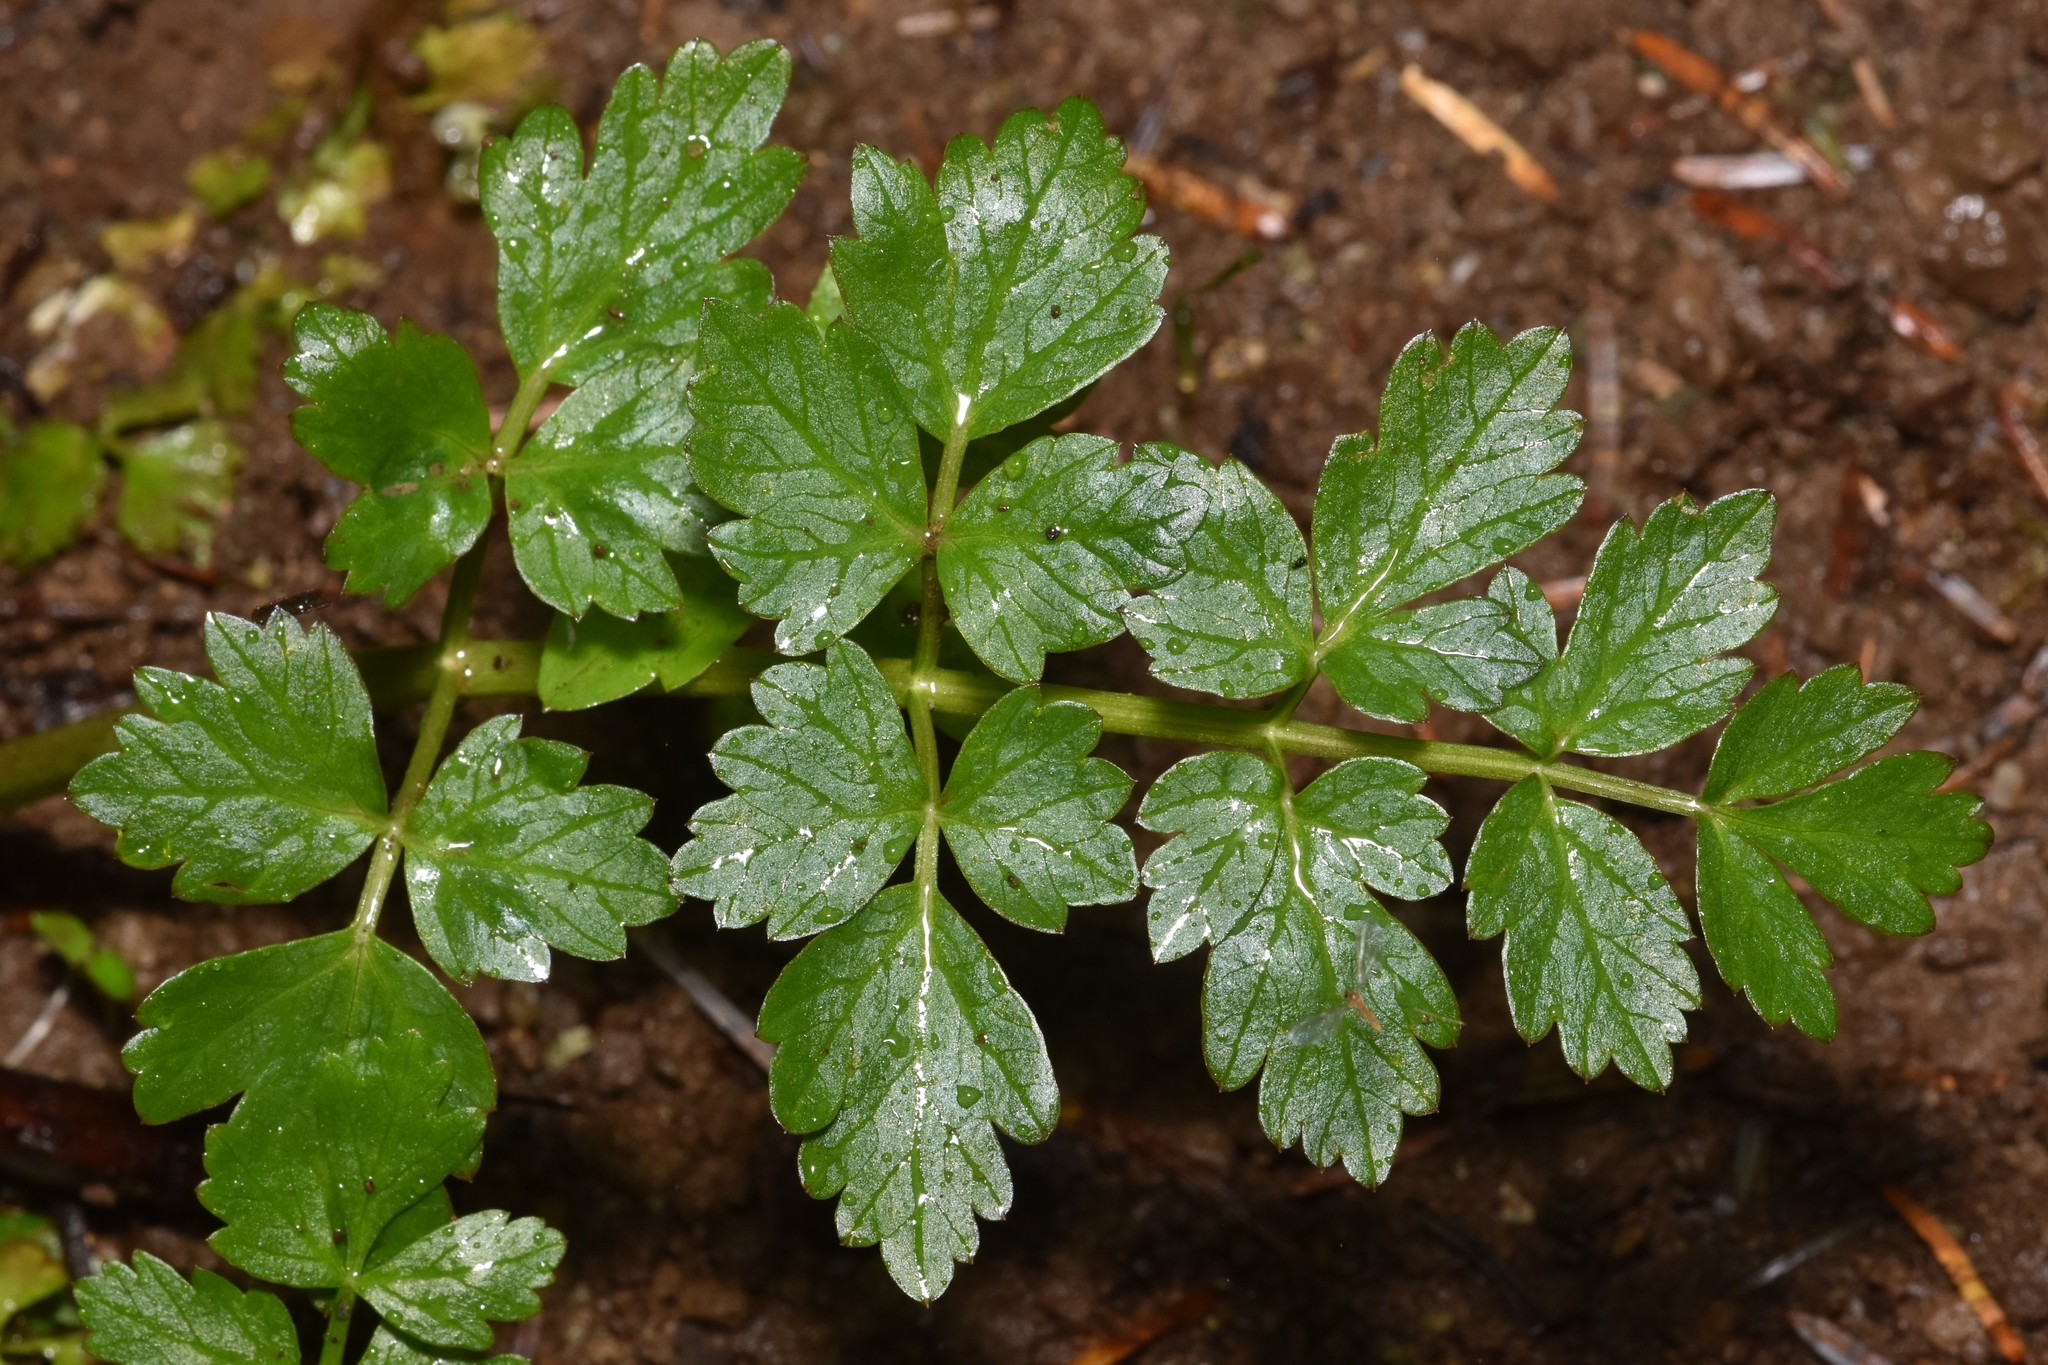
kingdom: Plantae
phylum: Tracheophyta
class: Magnoliopsida
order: Apiales
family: Apiaceae
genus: Oenanthe
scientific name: Oenanthe sarmentosa
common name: American water-parsley
